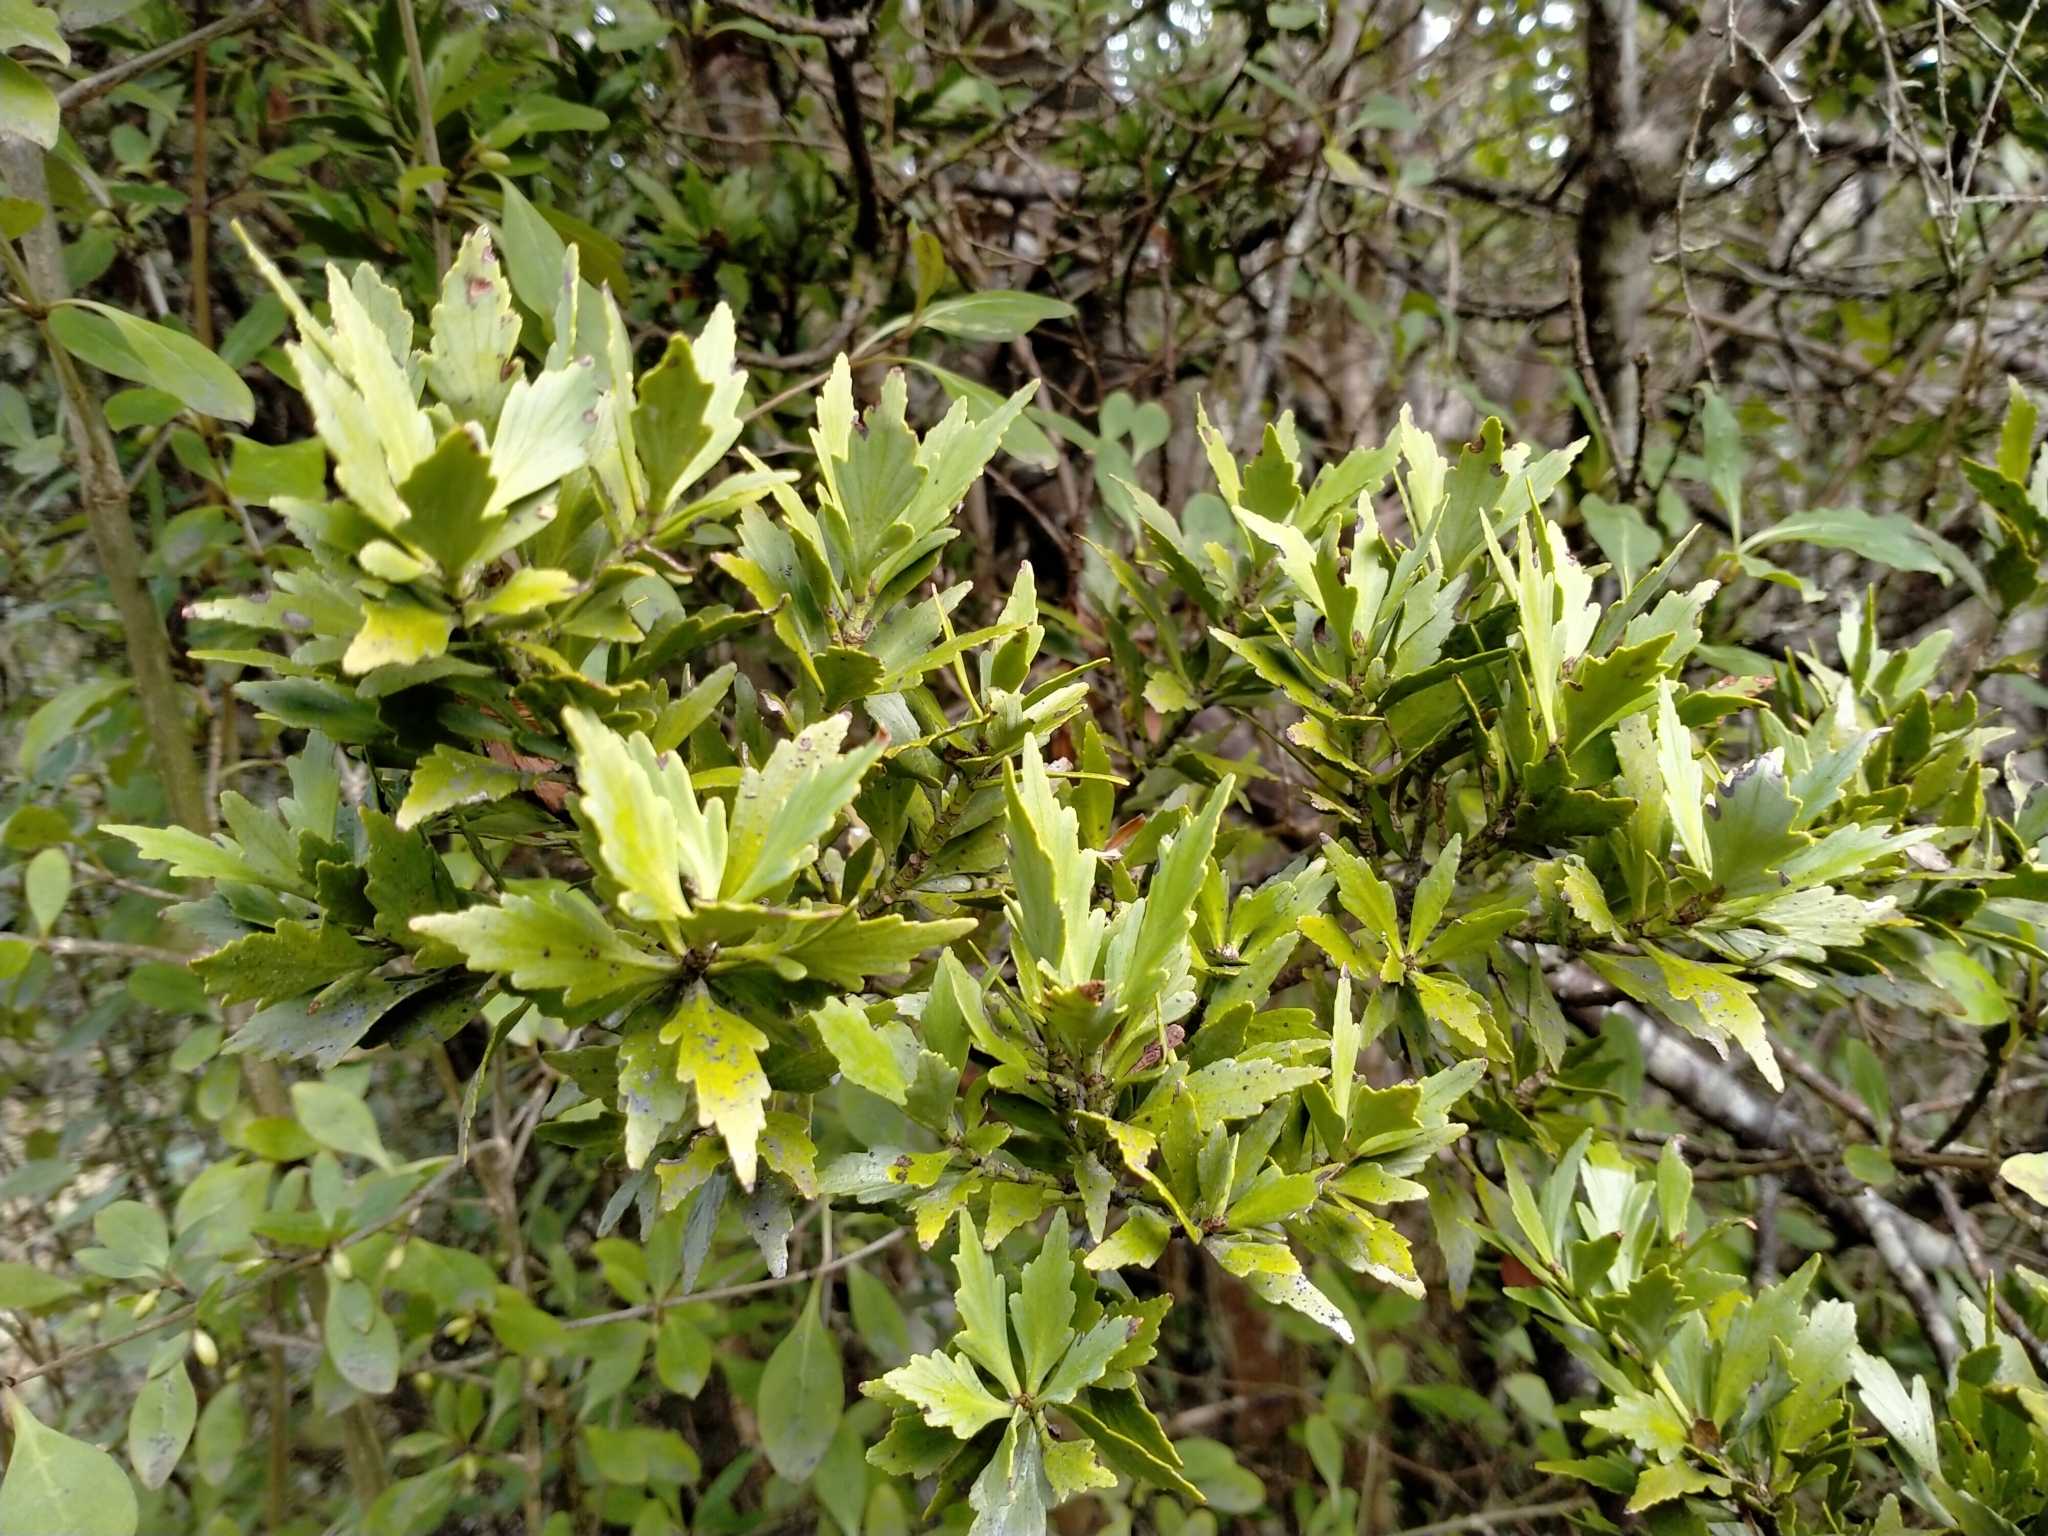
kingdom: Plantae
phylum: Tracheophyta
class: Pinopsida
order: Pinales
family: Phyllocladaceae
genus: Phyllocladus
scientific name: Phyllocladus trichomanoides
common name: Celery pine
